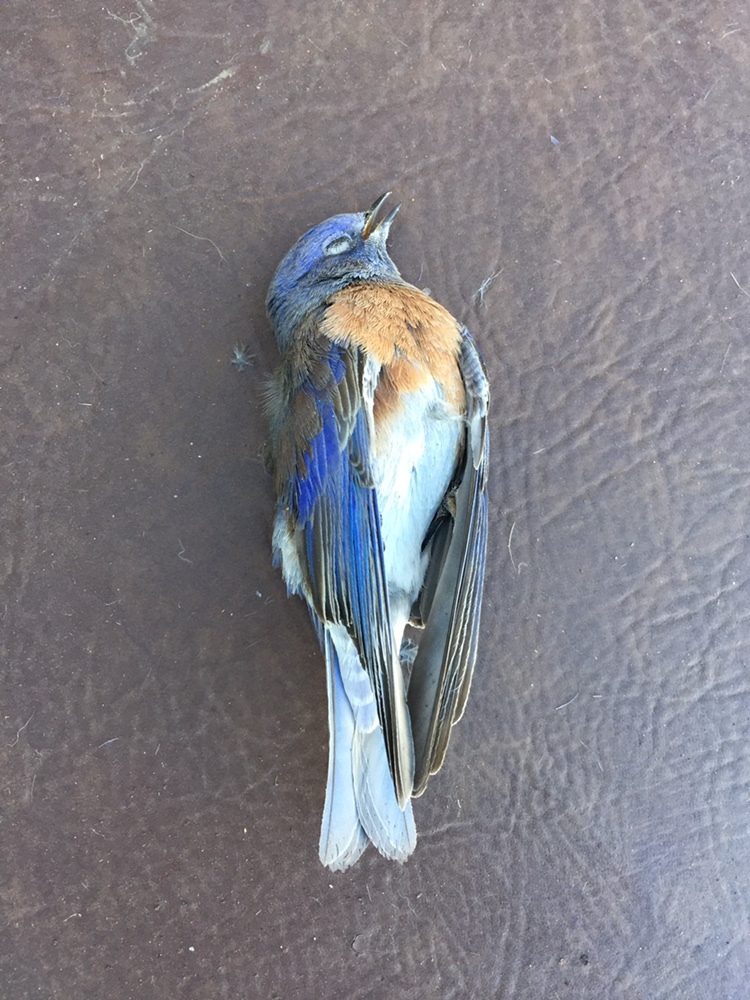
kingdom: Animalia
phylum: Chordata
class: Aves
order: Passeriformes
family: Turdidae
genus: Sialia
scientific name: Sialia mexicana
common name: Western bluebird
